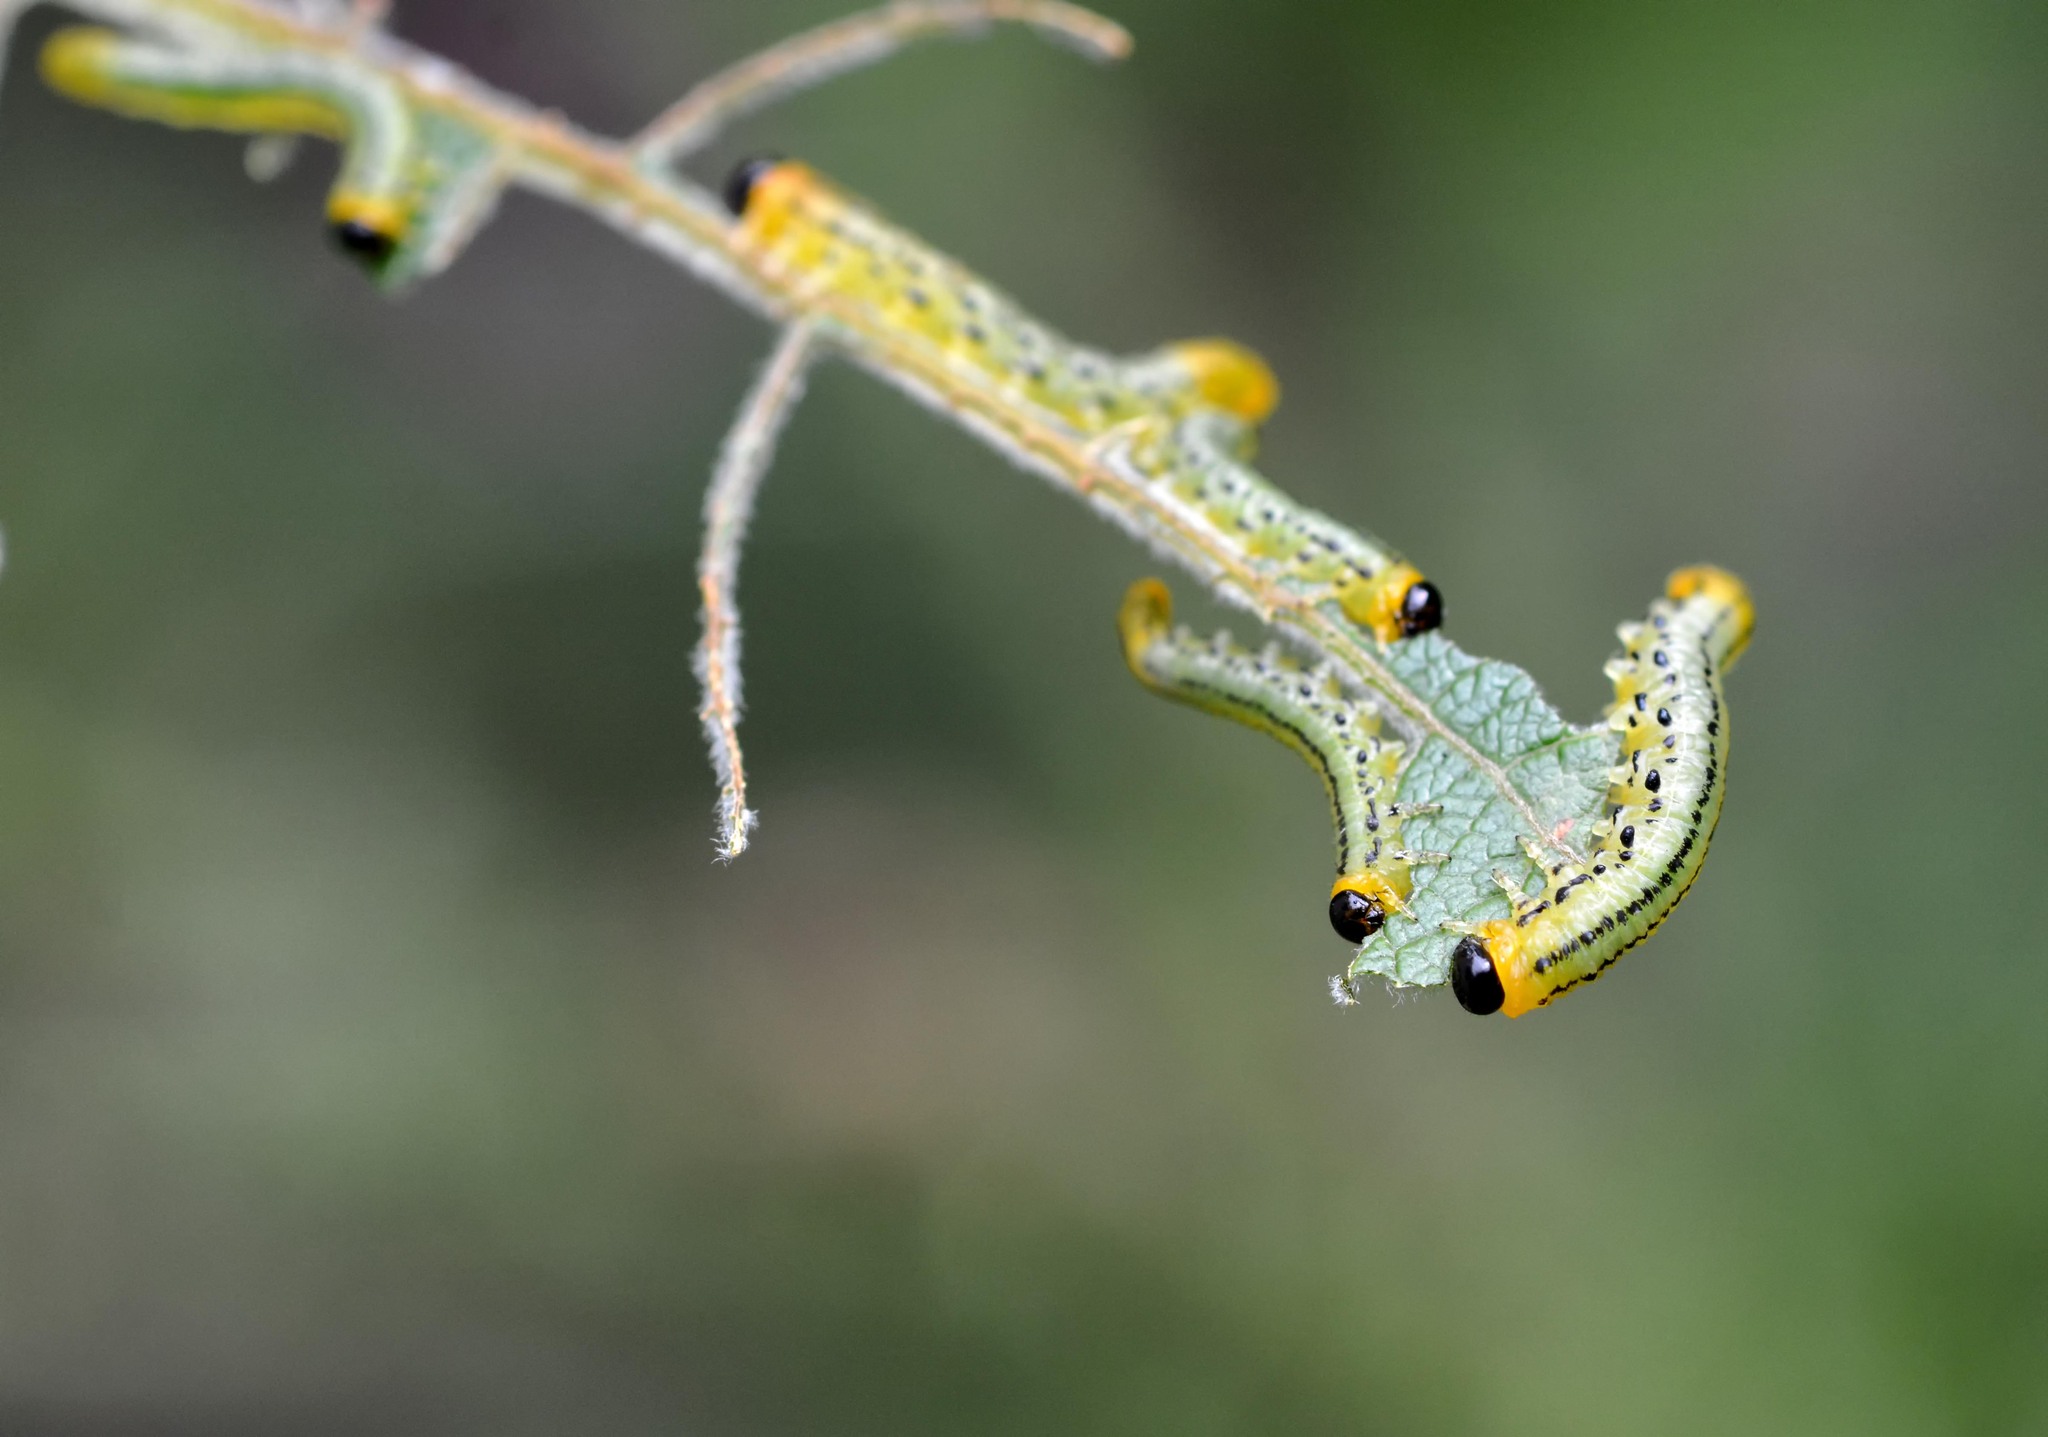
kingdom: Animalia
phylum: Arthropoda
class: Insecta
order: Hymenoptera
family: Tenthredinidae
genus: Nematus
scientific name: Nematus pavidus
